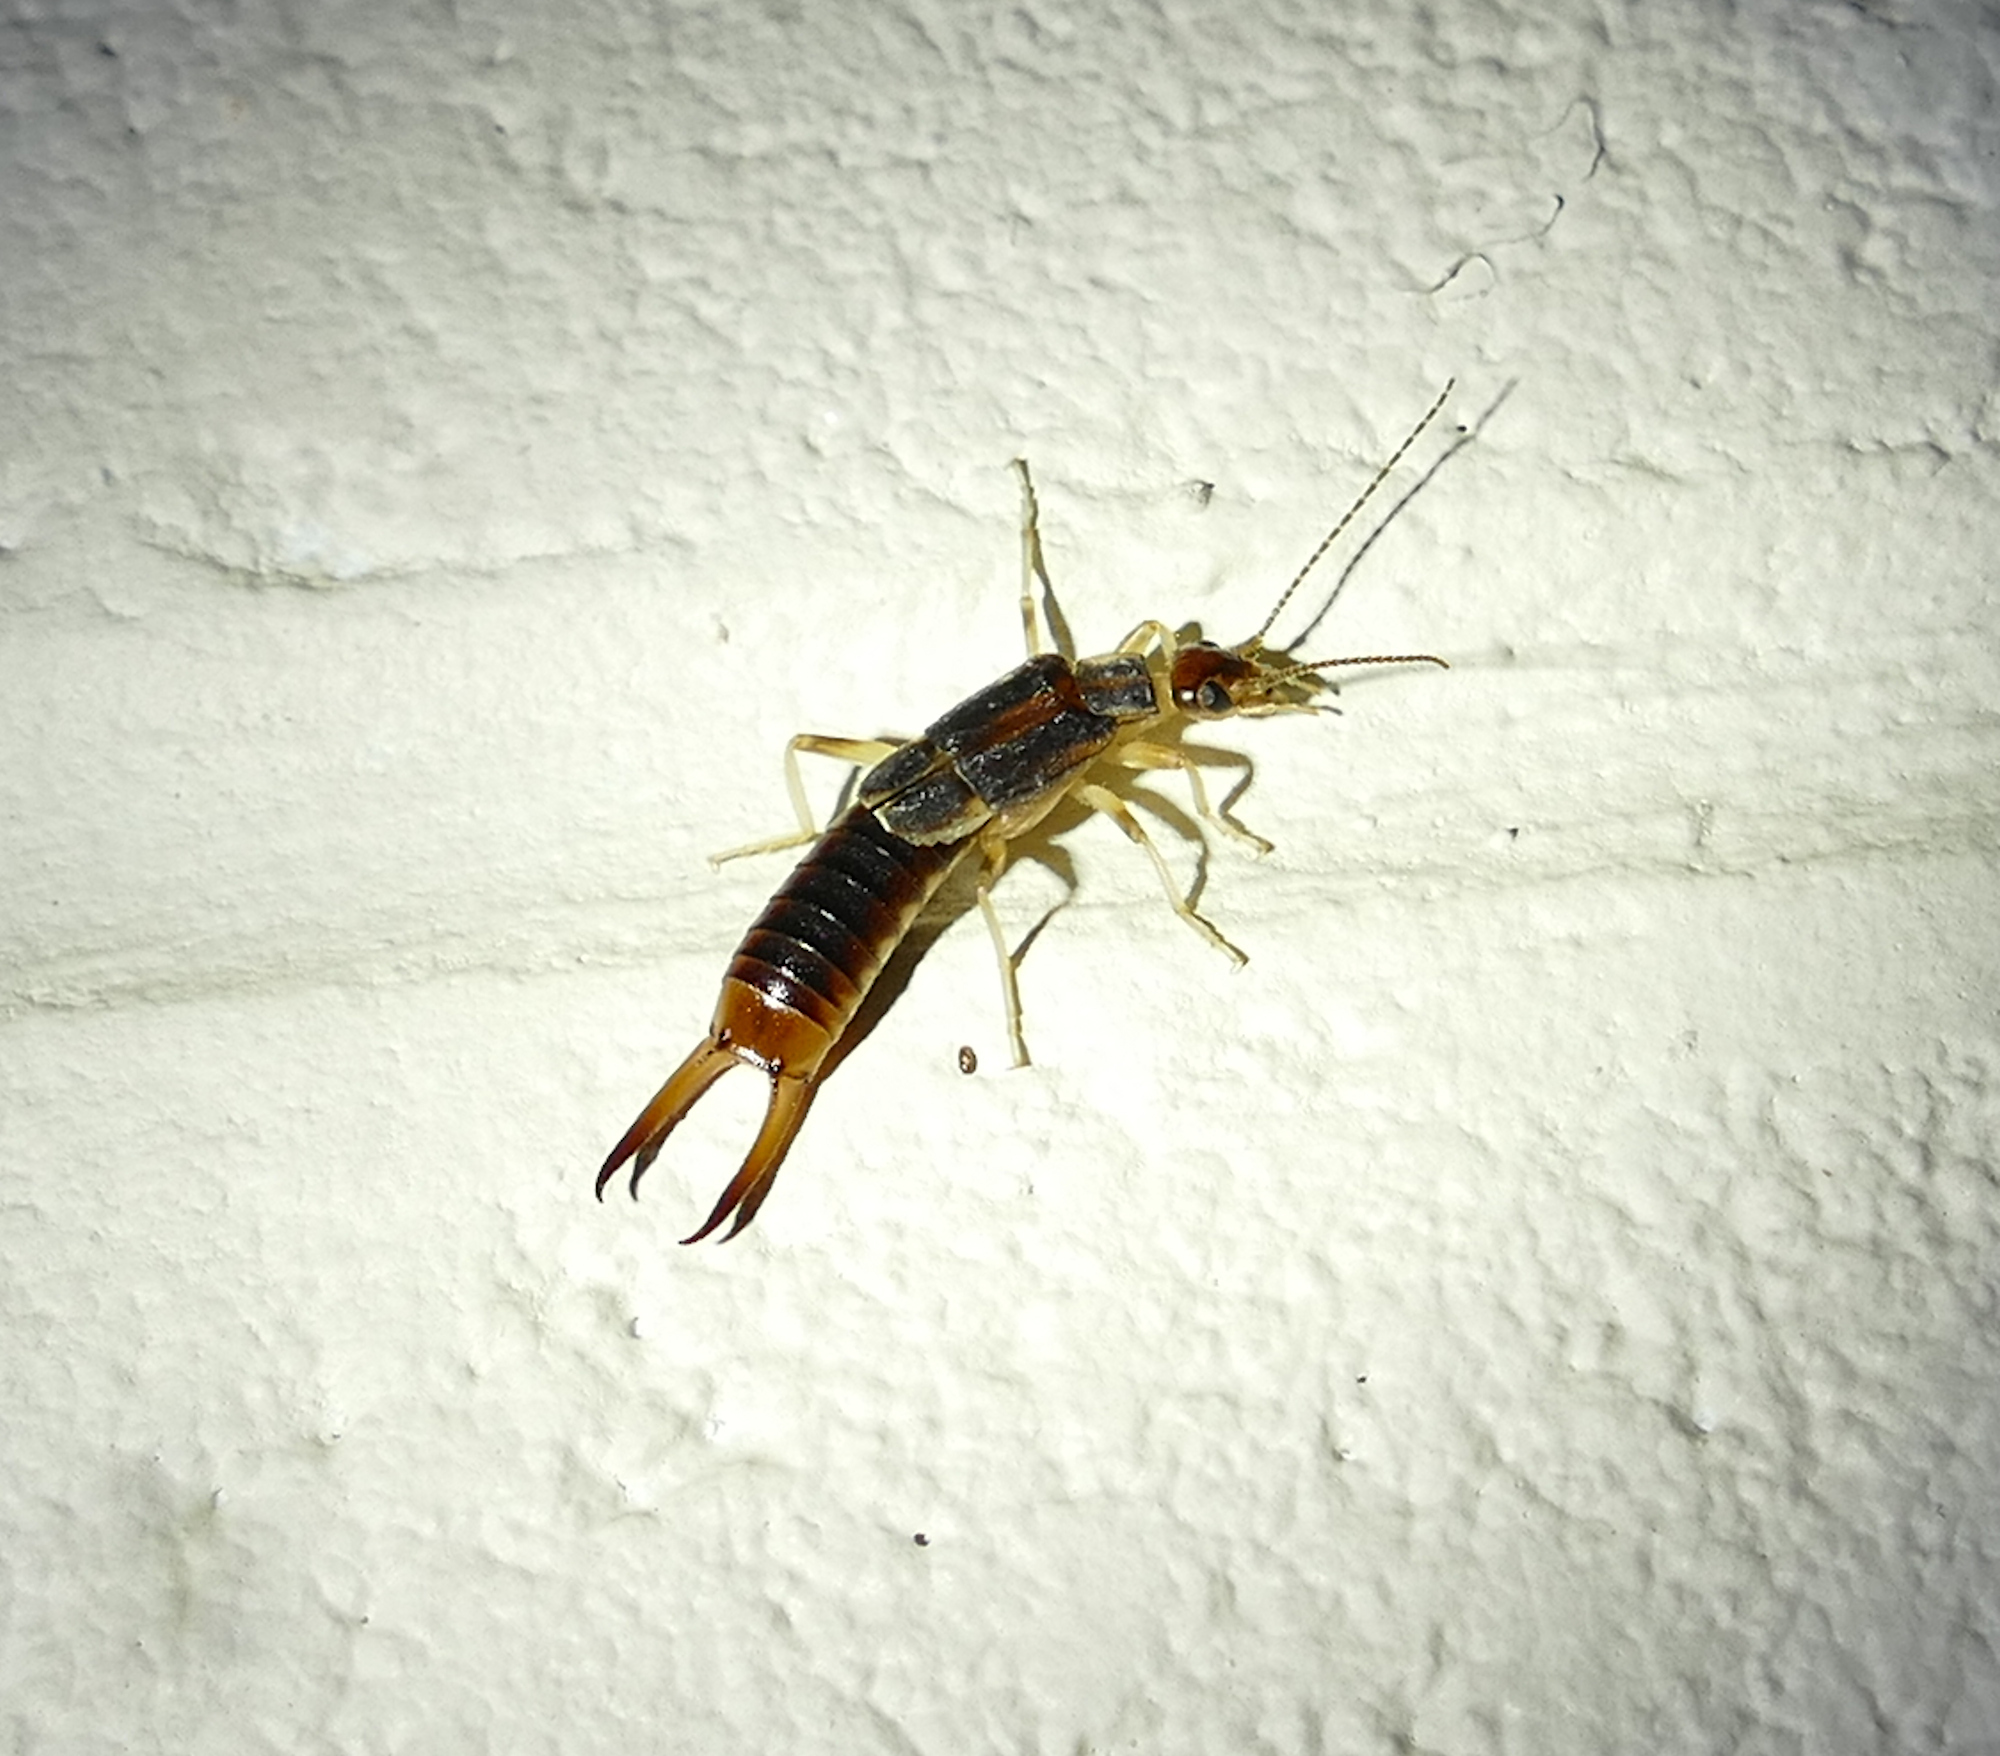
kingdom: Animalia
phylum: Arthropoda
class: Insecta
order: Dermaptera
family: Labiduridae
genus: Labidura
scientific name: Labidura riparia
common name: Striped earwig
